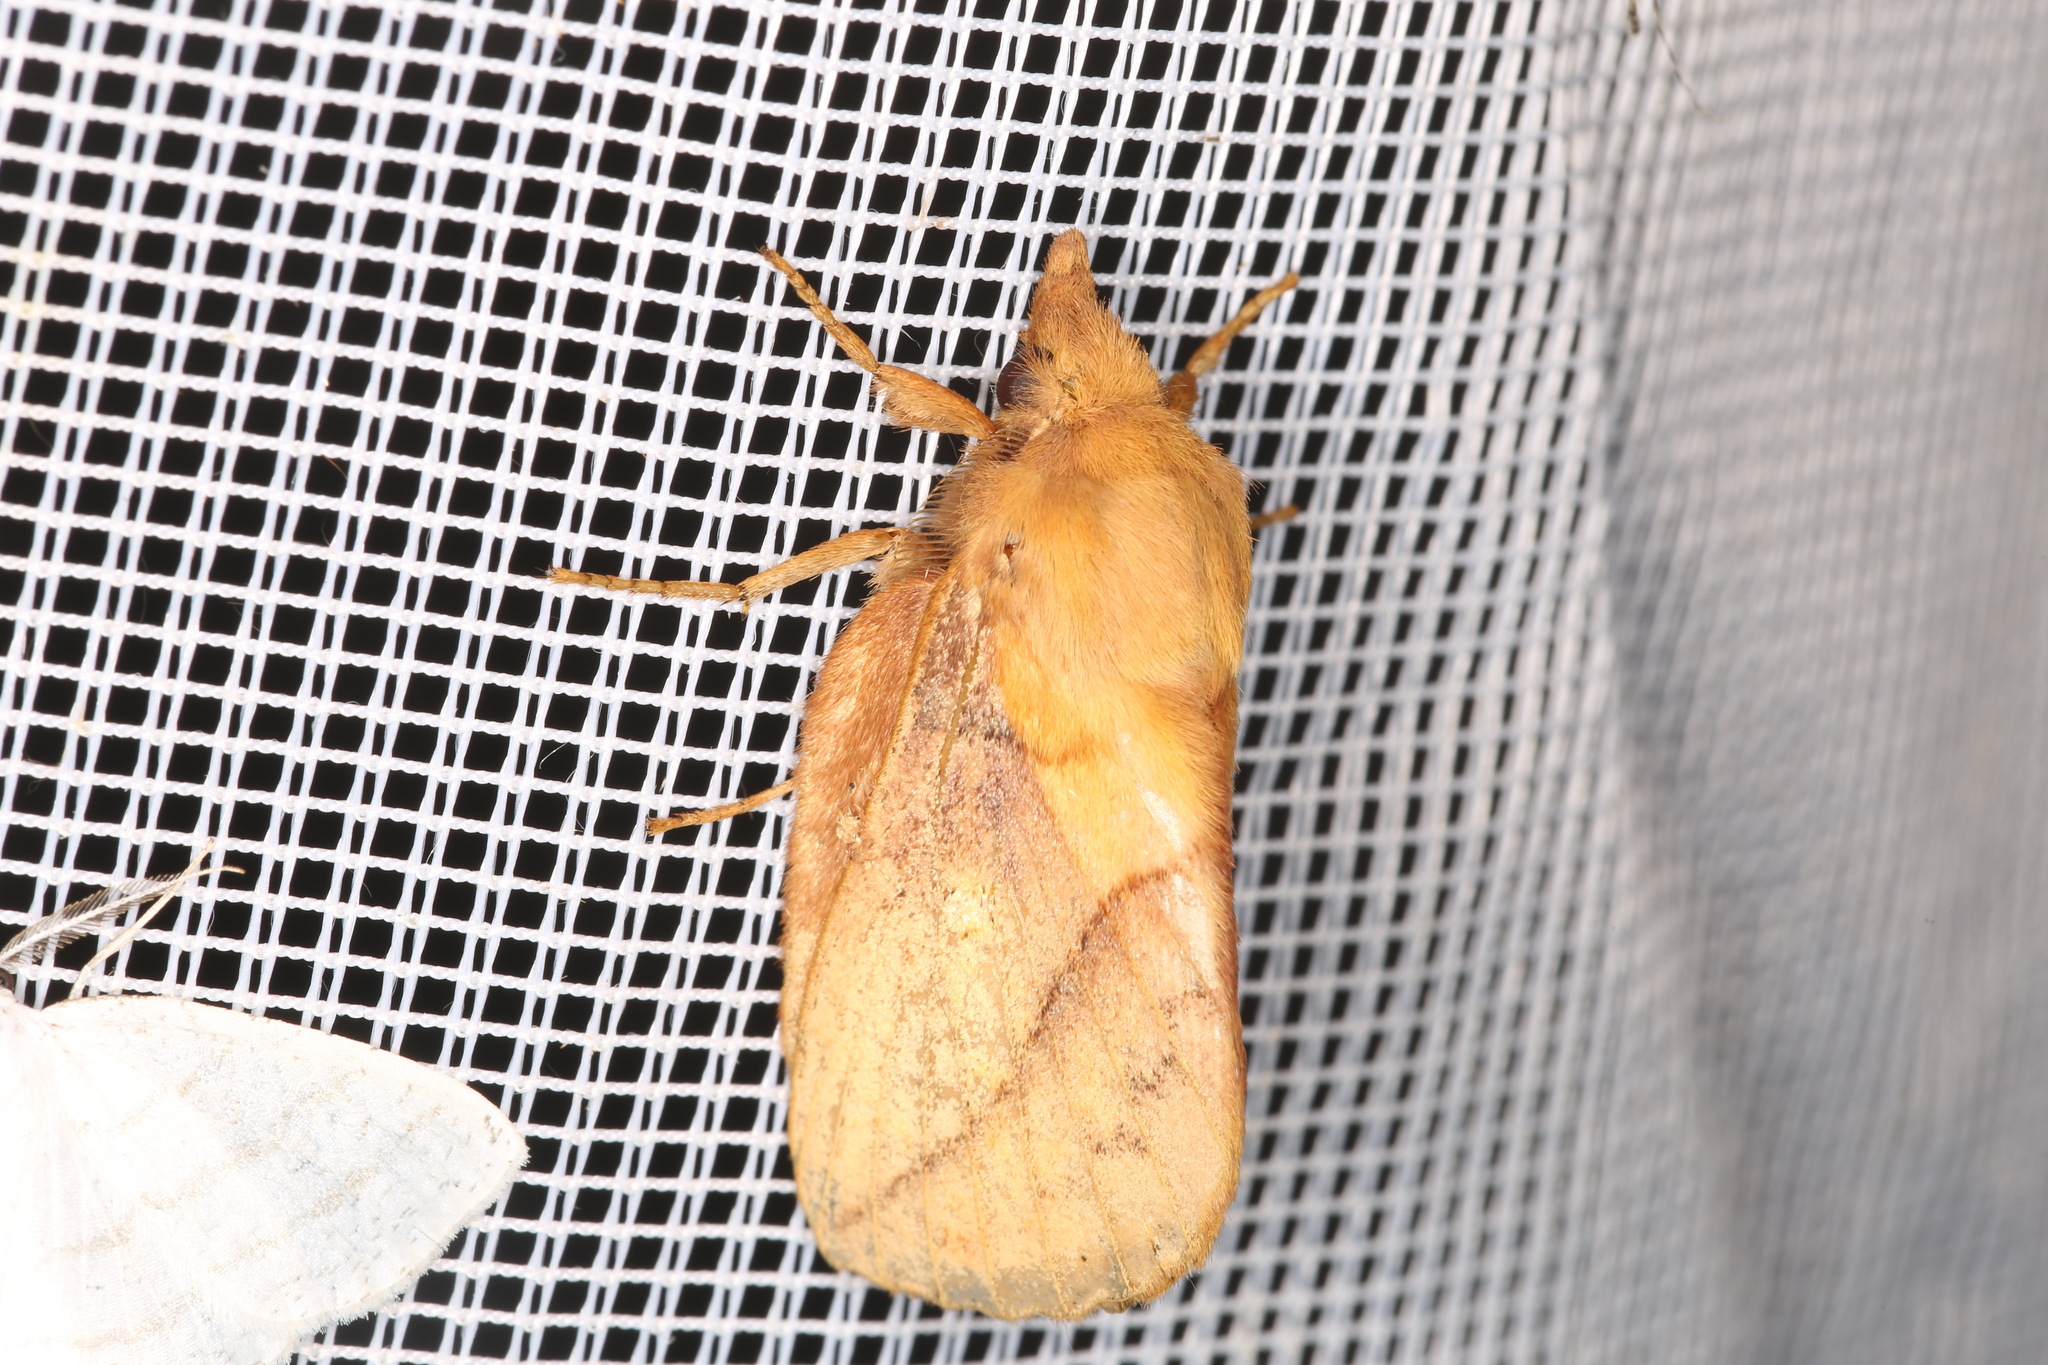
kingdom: Animalia
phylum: Arthropoda
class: Insecta
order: Lepidoptera
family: Lasiocampidae
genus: Euthrix
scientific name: Euthrix potatoria
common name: Drinker
